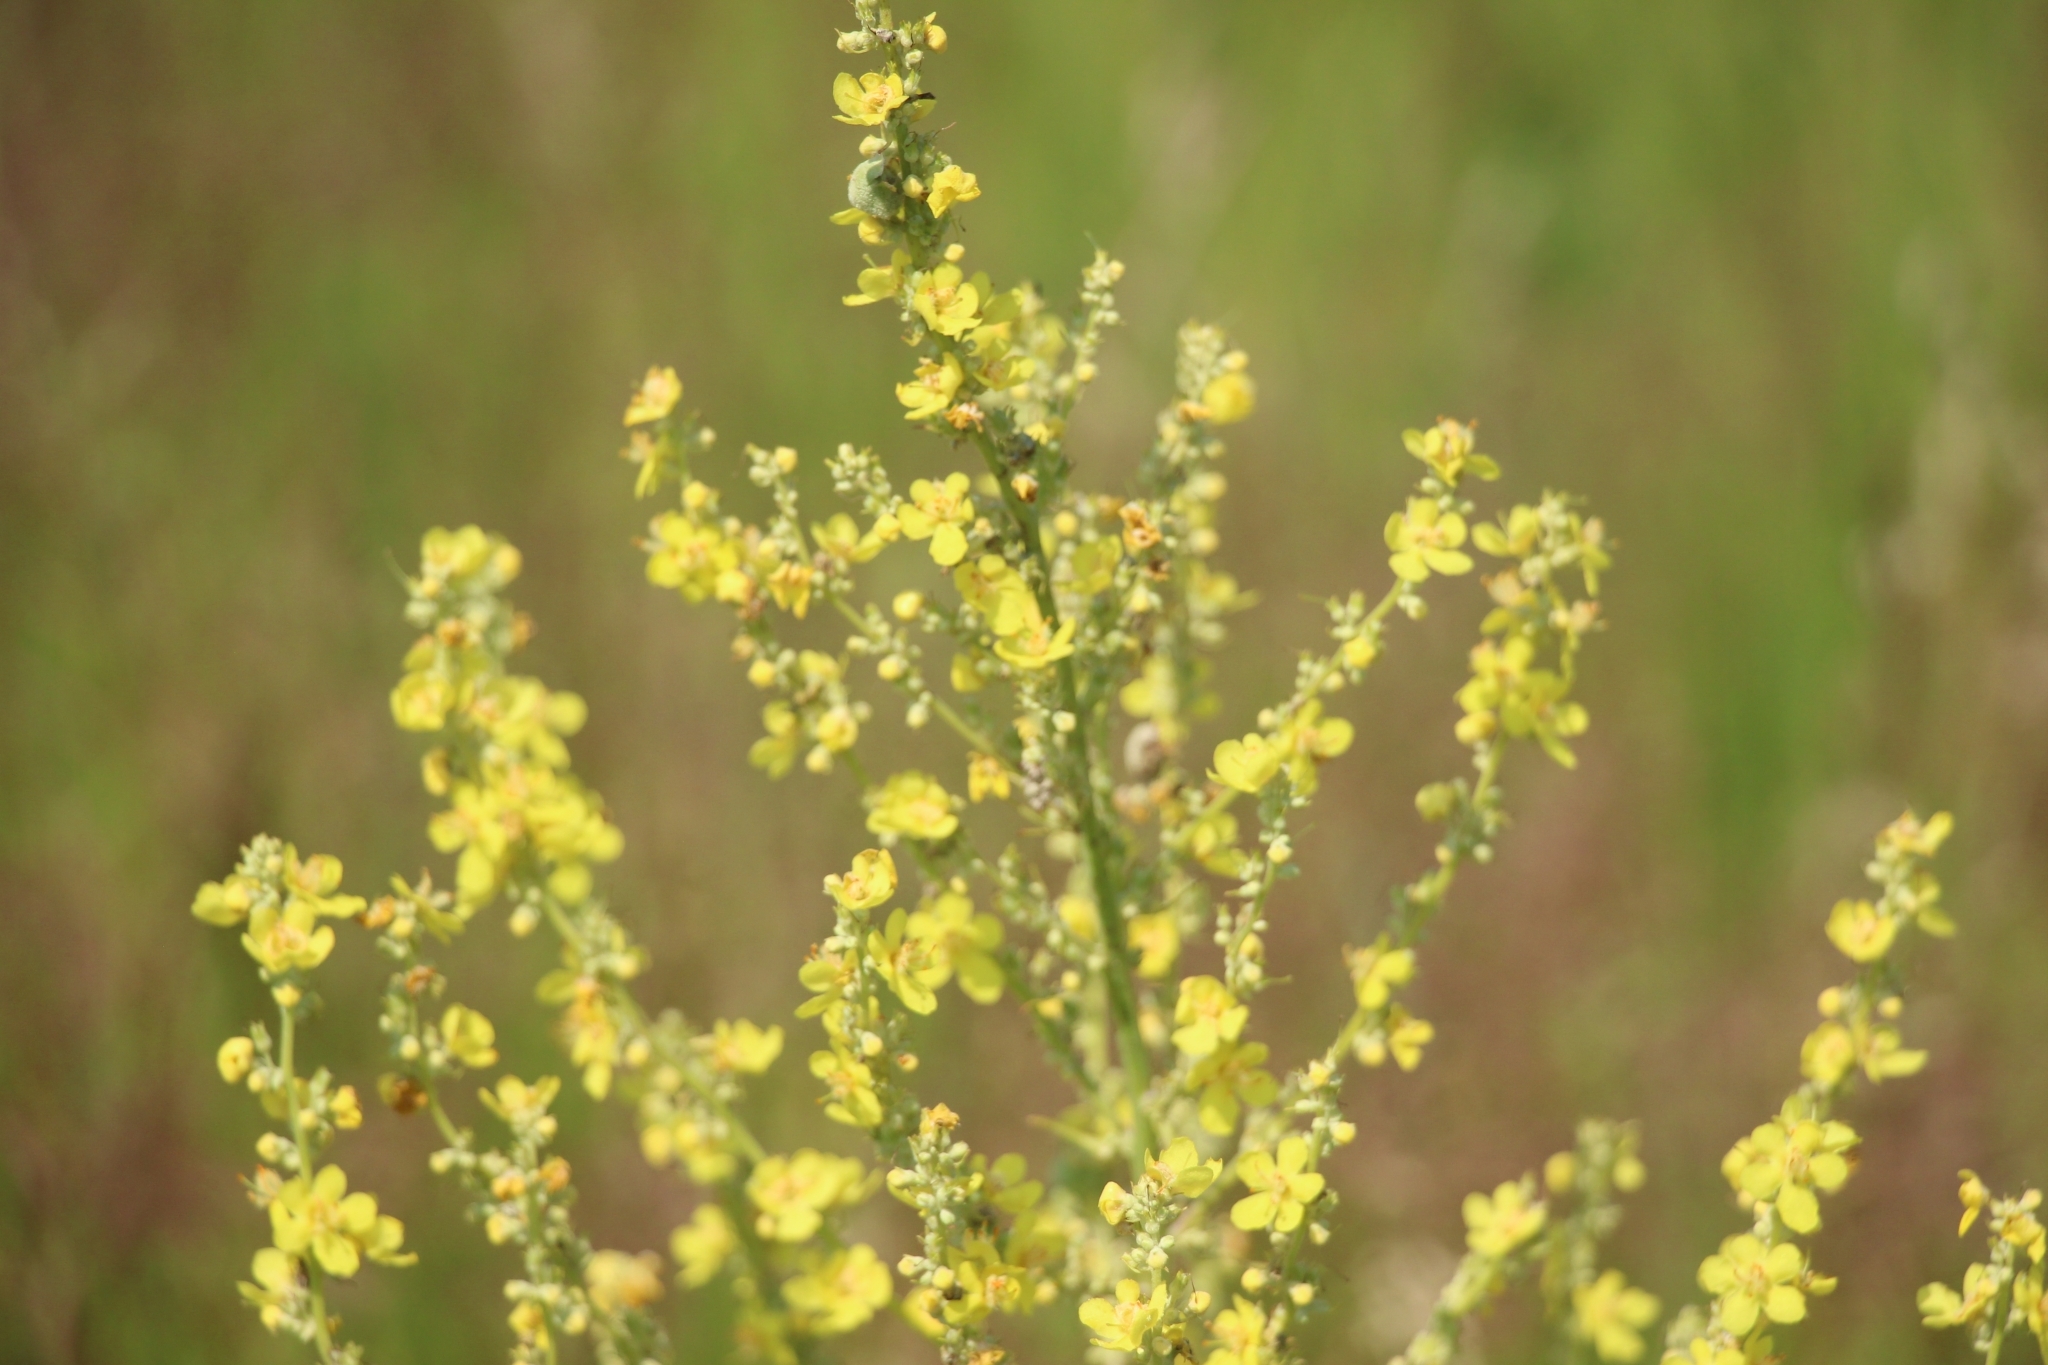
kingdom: Plantae
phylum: Tracheophyta
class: Magnoliopsida
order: Lamiales
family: Scrophulariaceae
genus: Verbascum
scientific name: Verbascum lychnitis
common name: White mullein
